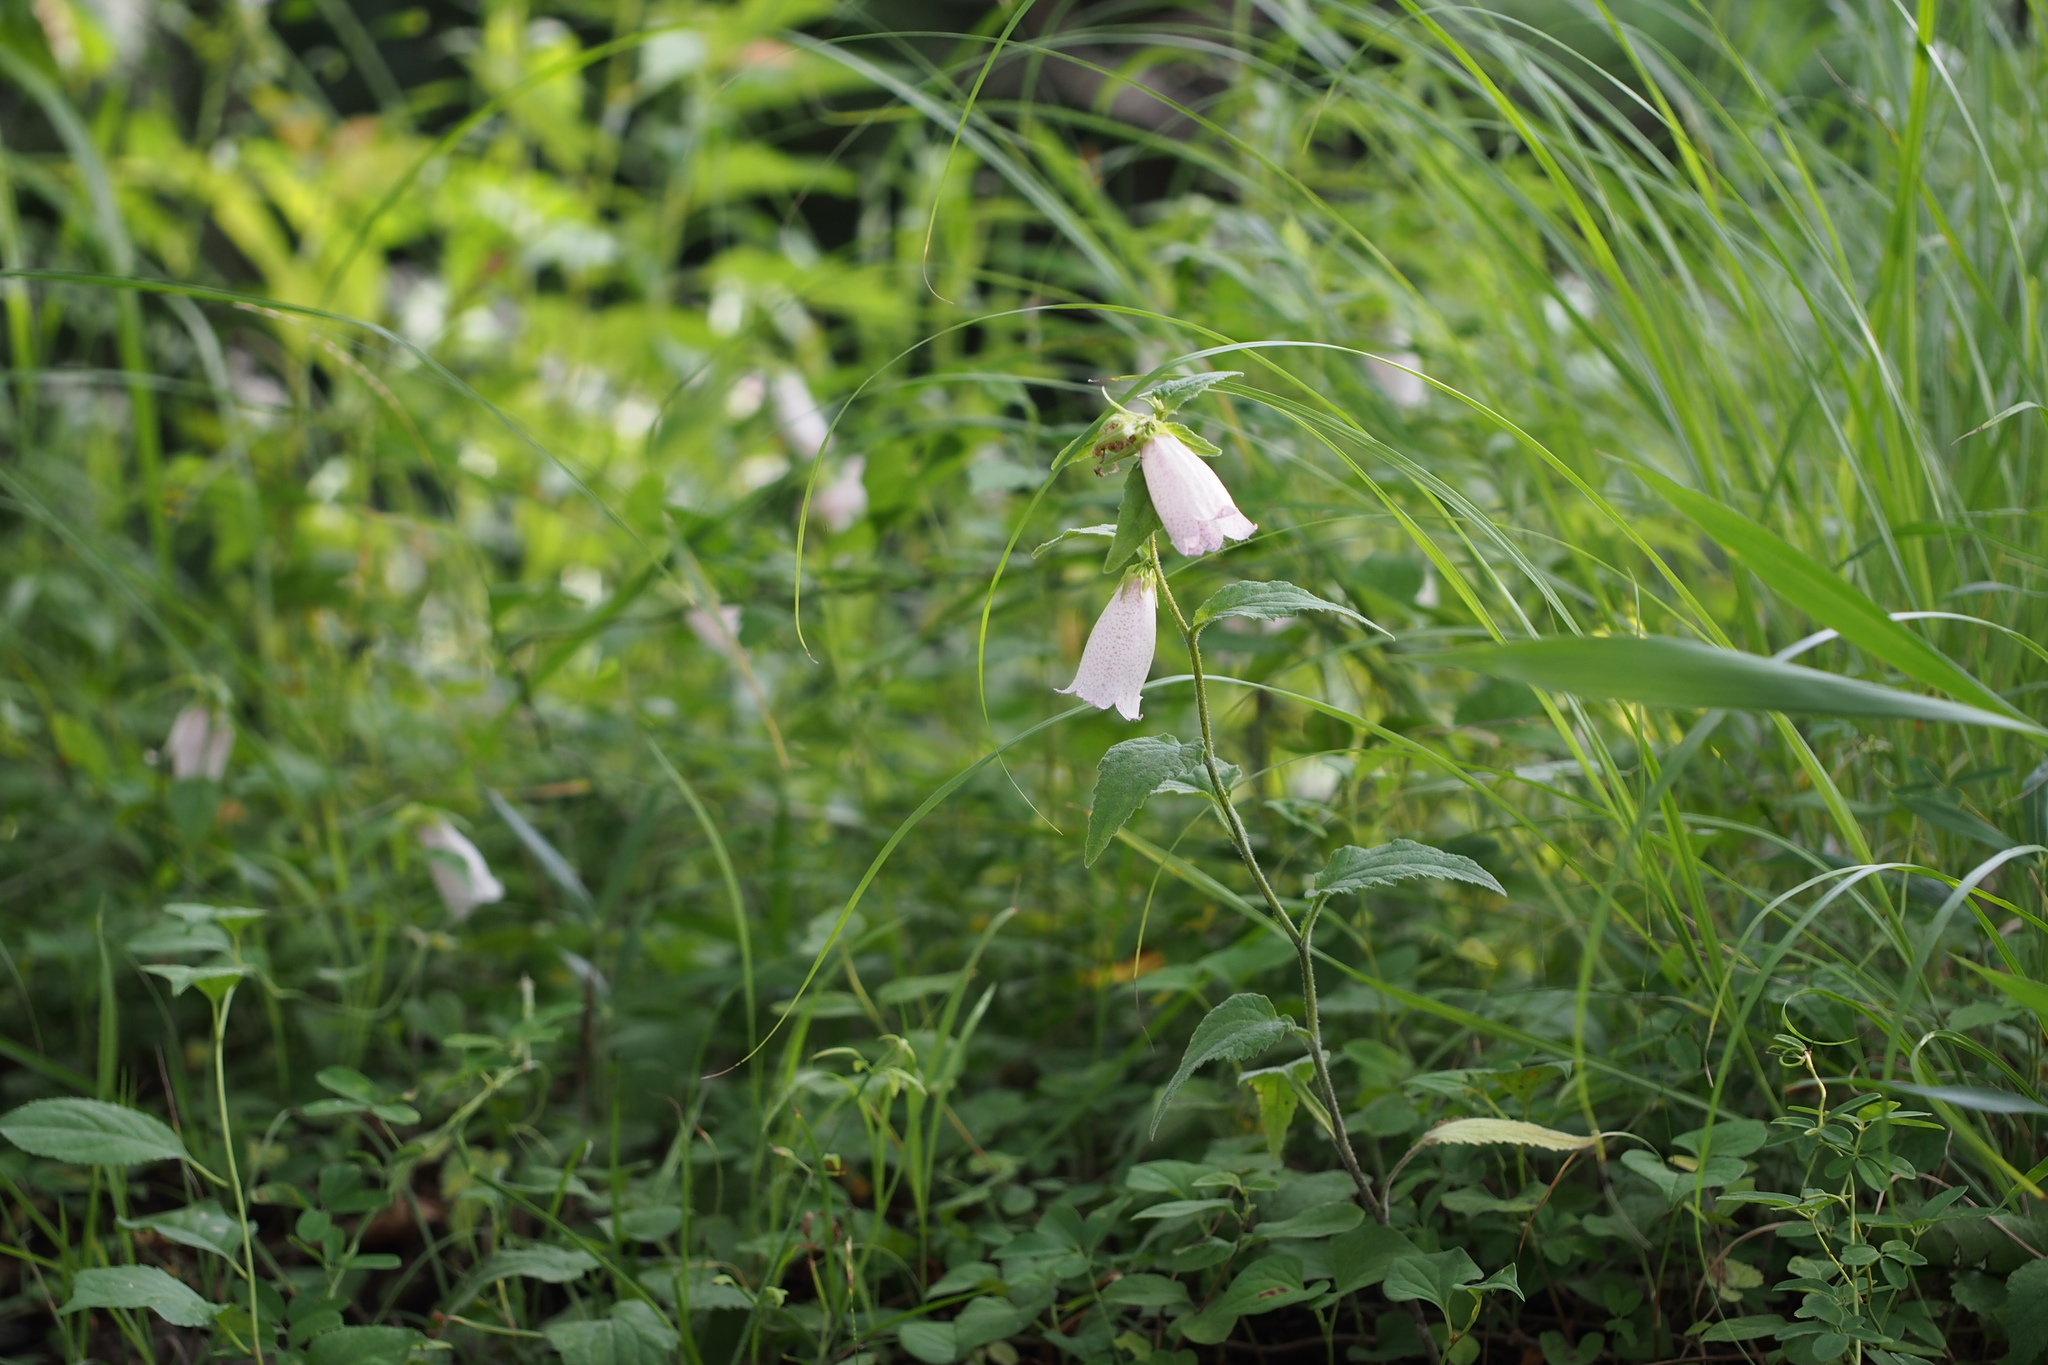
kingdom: Plantae
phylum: Tracheophyta
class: Magnoliopsida
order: Asterales
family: Campanulaceae
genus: Campanula
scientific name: Campanula punctata
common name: Spotted bellflower
